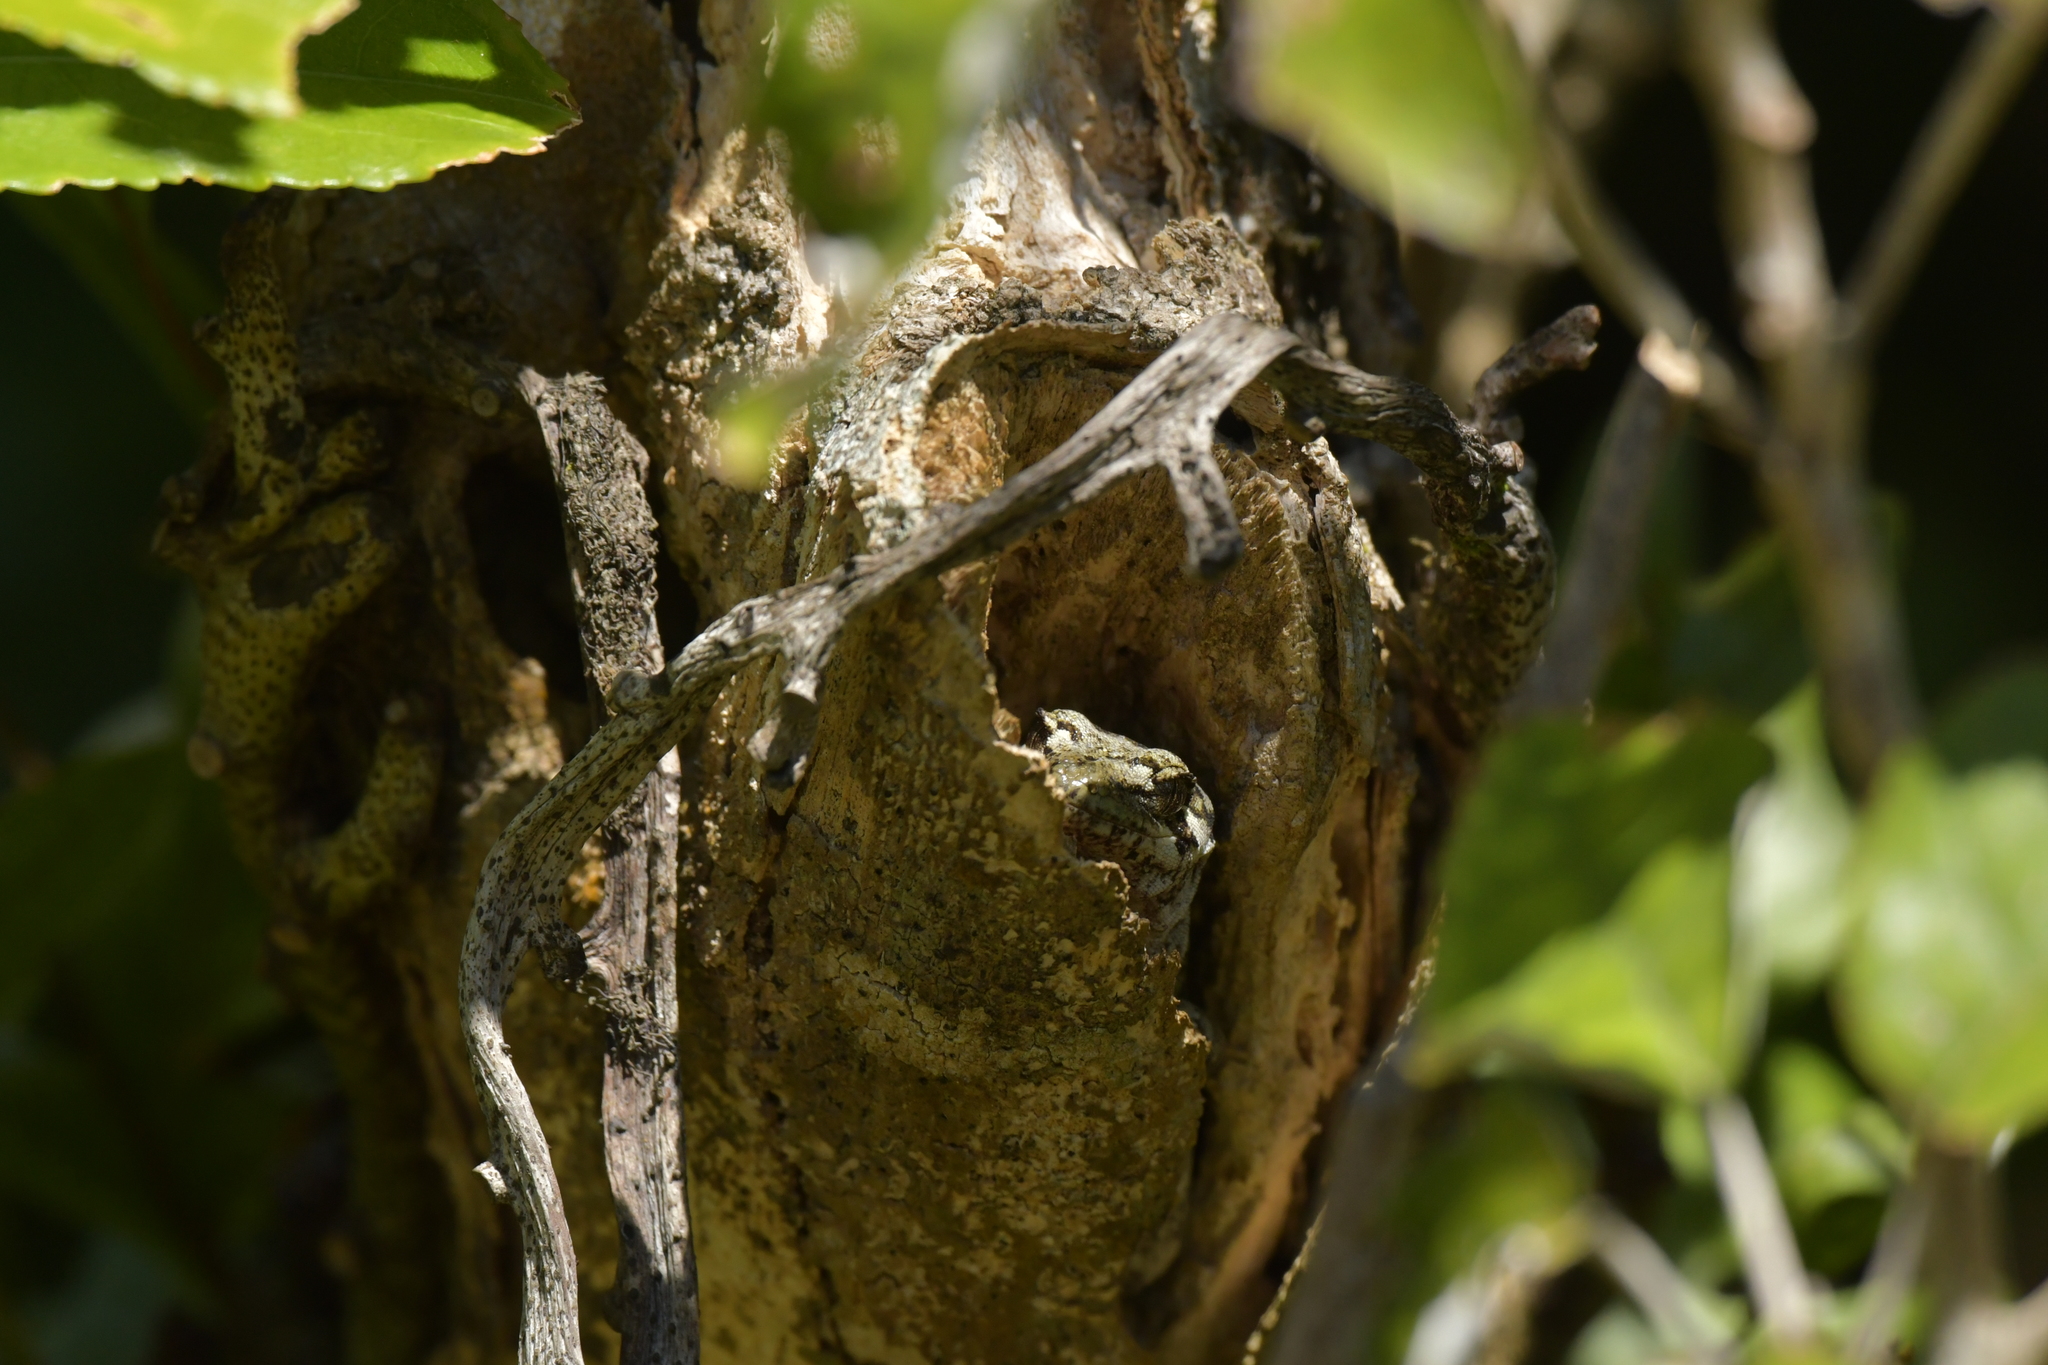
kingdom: Animalia
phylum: Chordata
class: Squamata
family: Diplodactylidae
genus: Mokopirirakau
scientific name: Mokopirirakau
